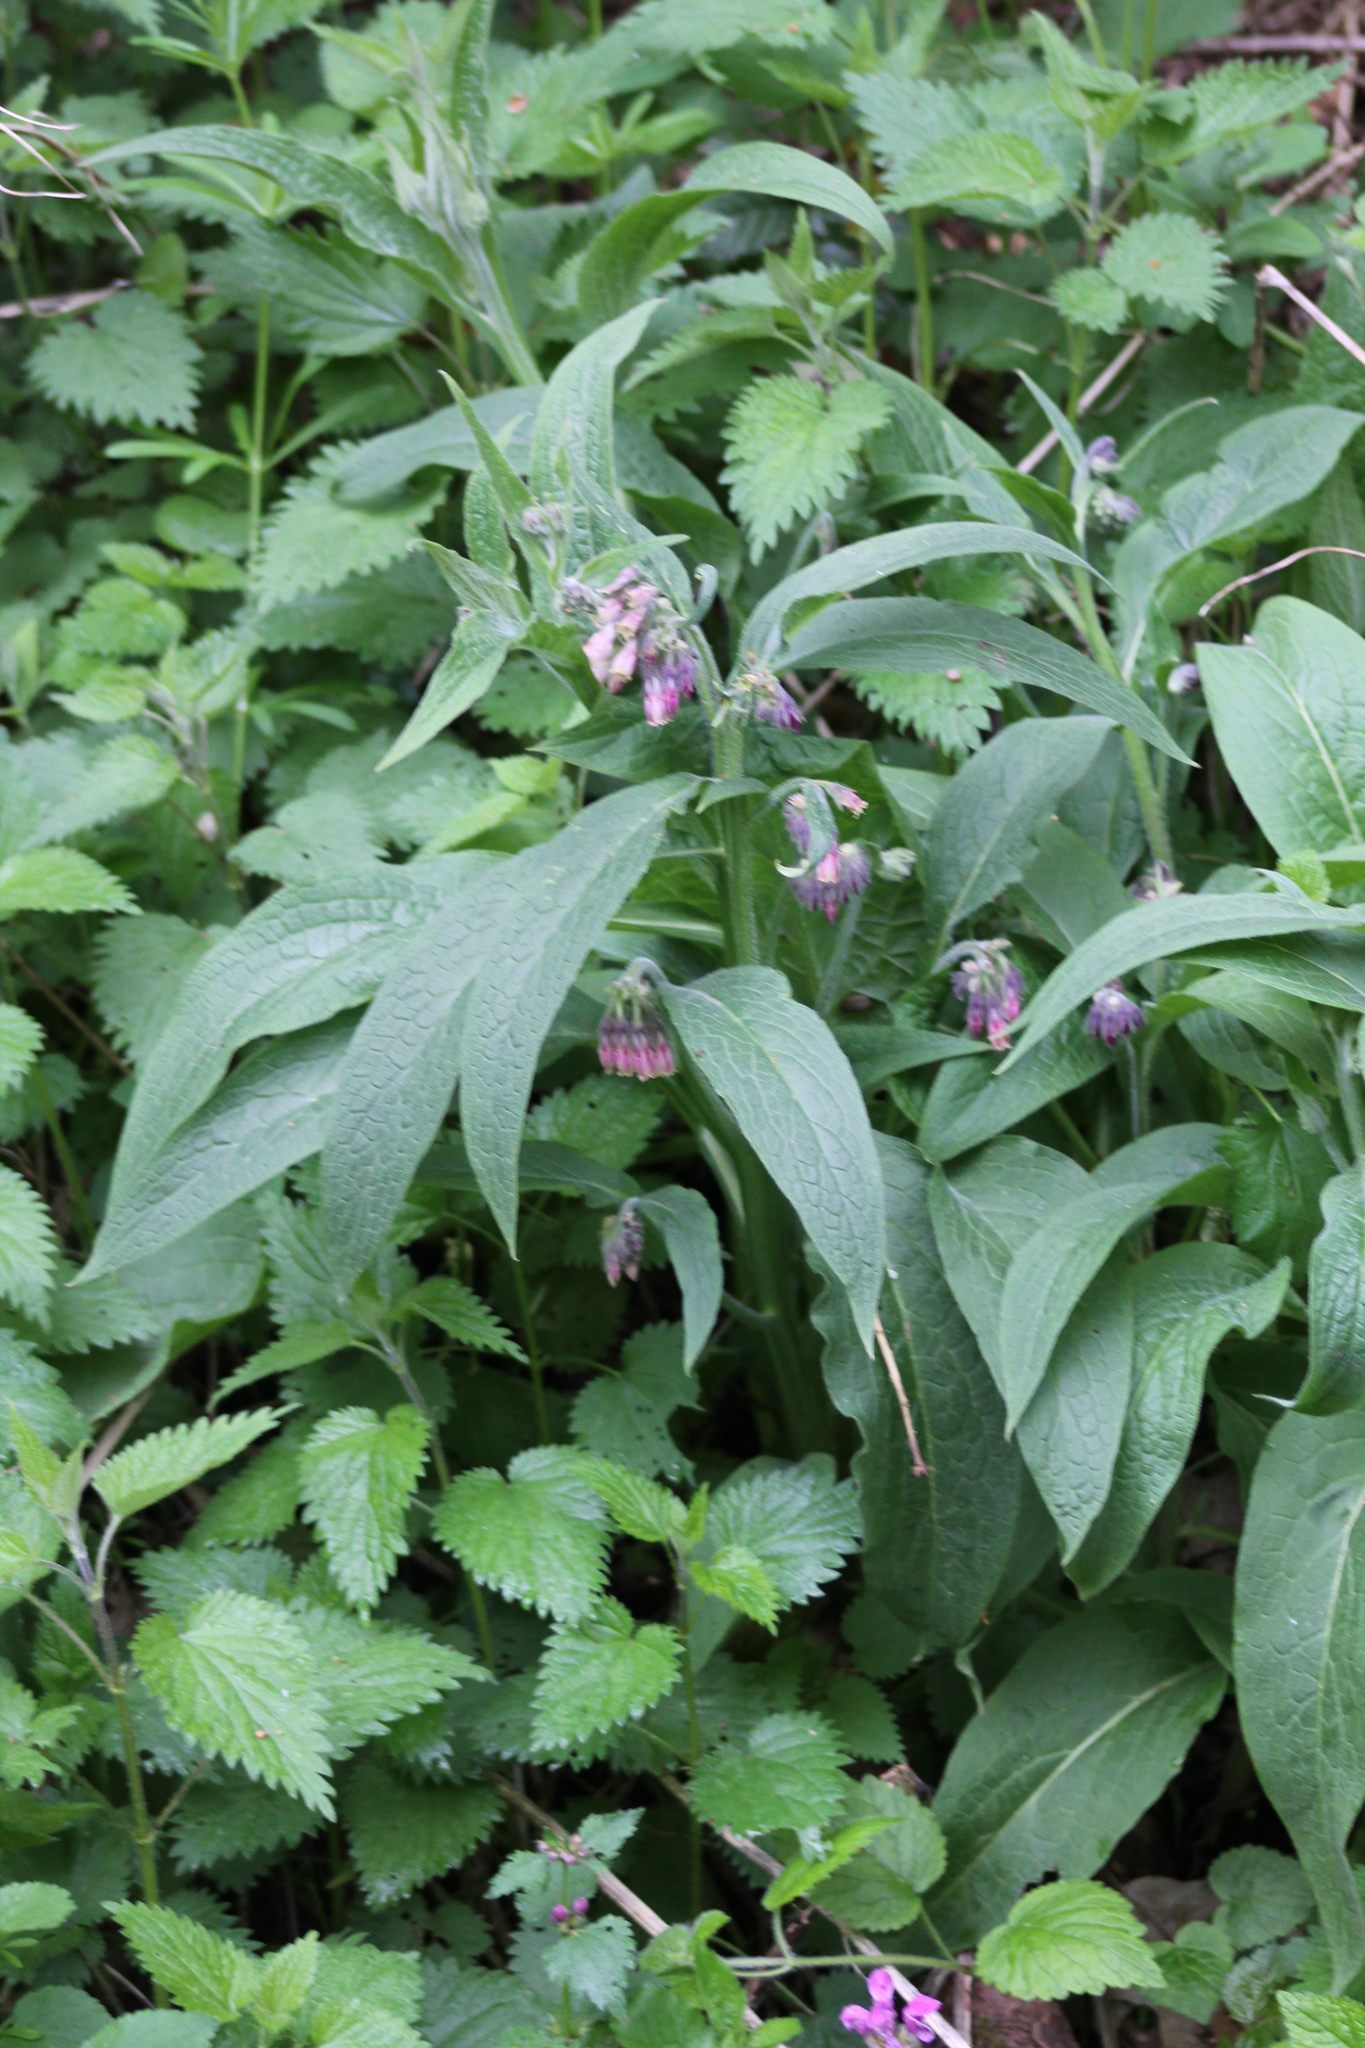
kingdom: Plantae
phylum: Tracheophyta
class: Magnoliopsida
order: Boraginales
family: Boraginaceae
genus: Symphytum
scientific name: Symphytum officinale
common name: Common comfrey
